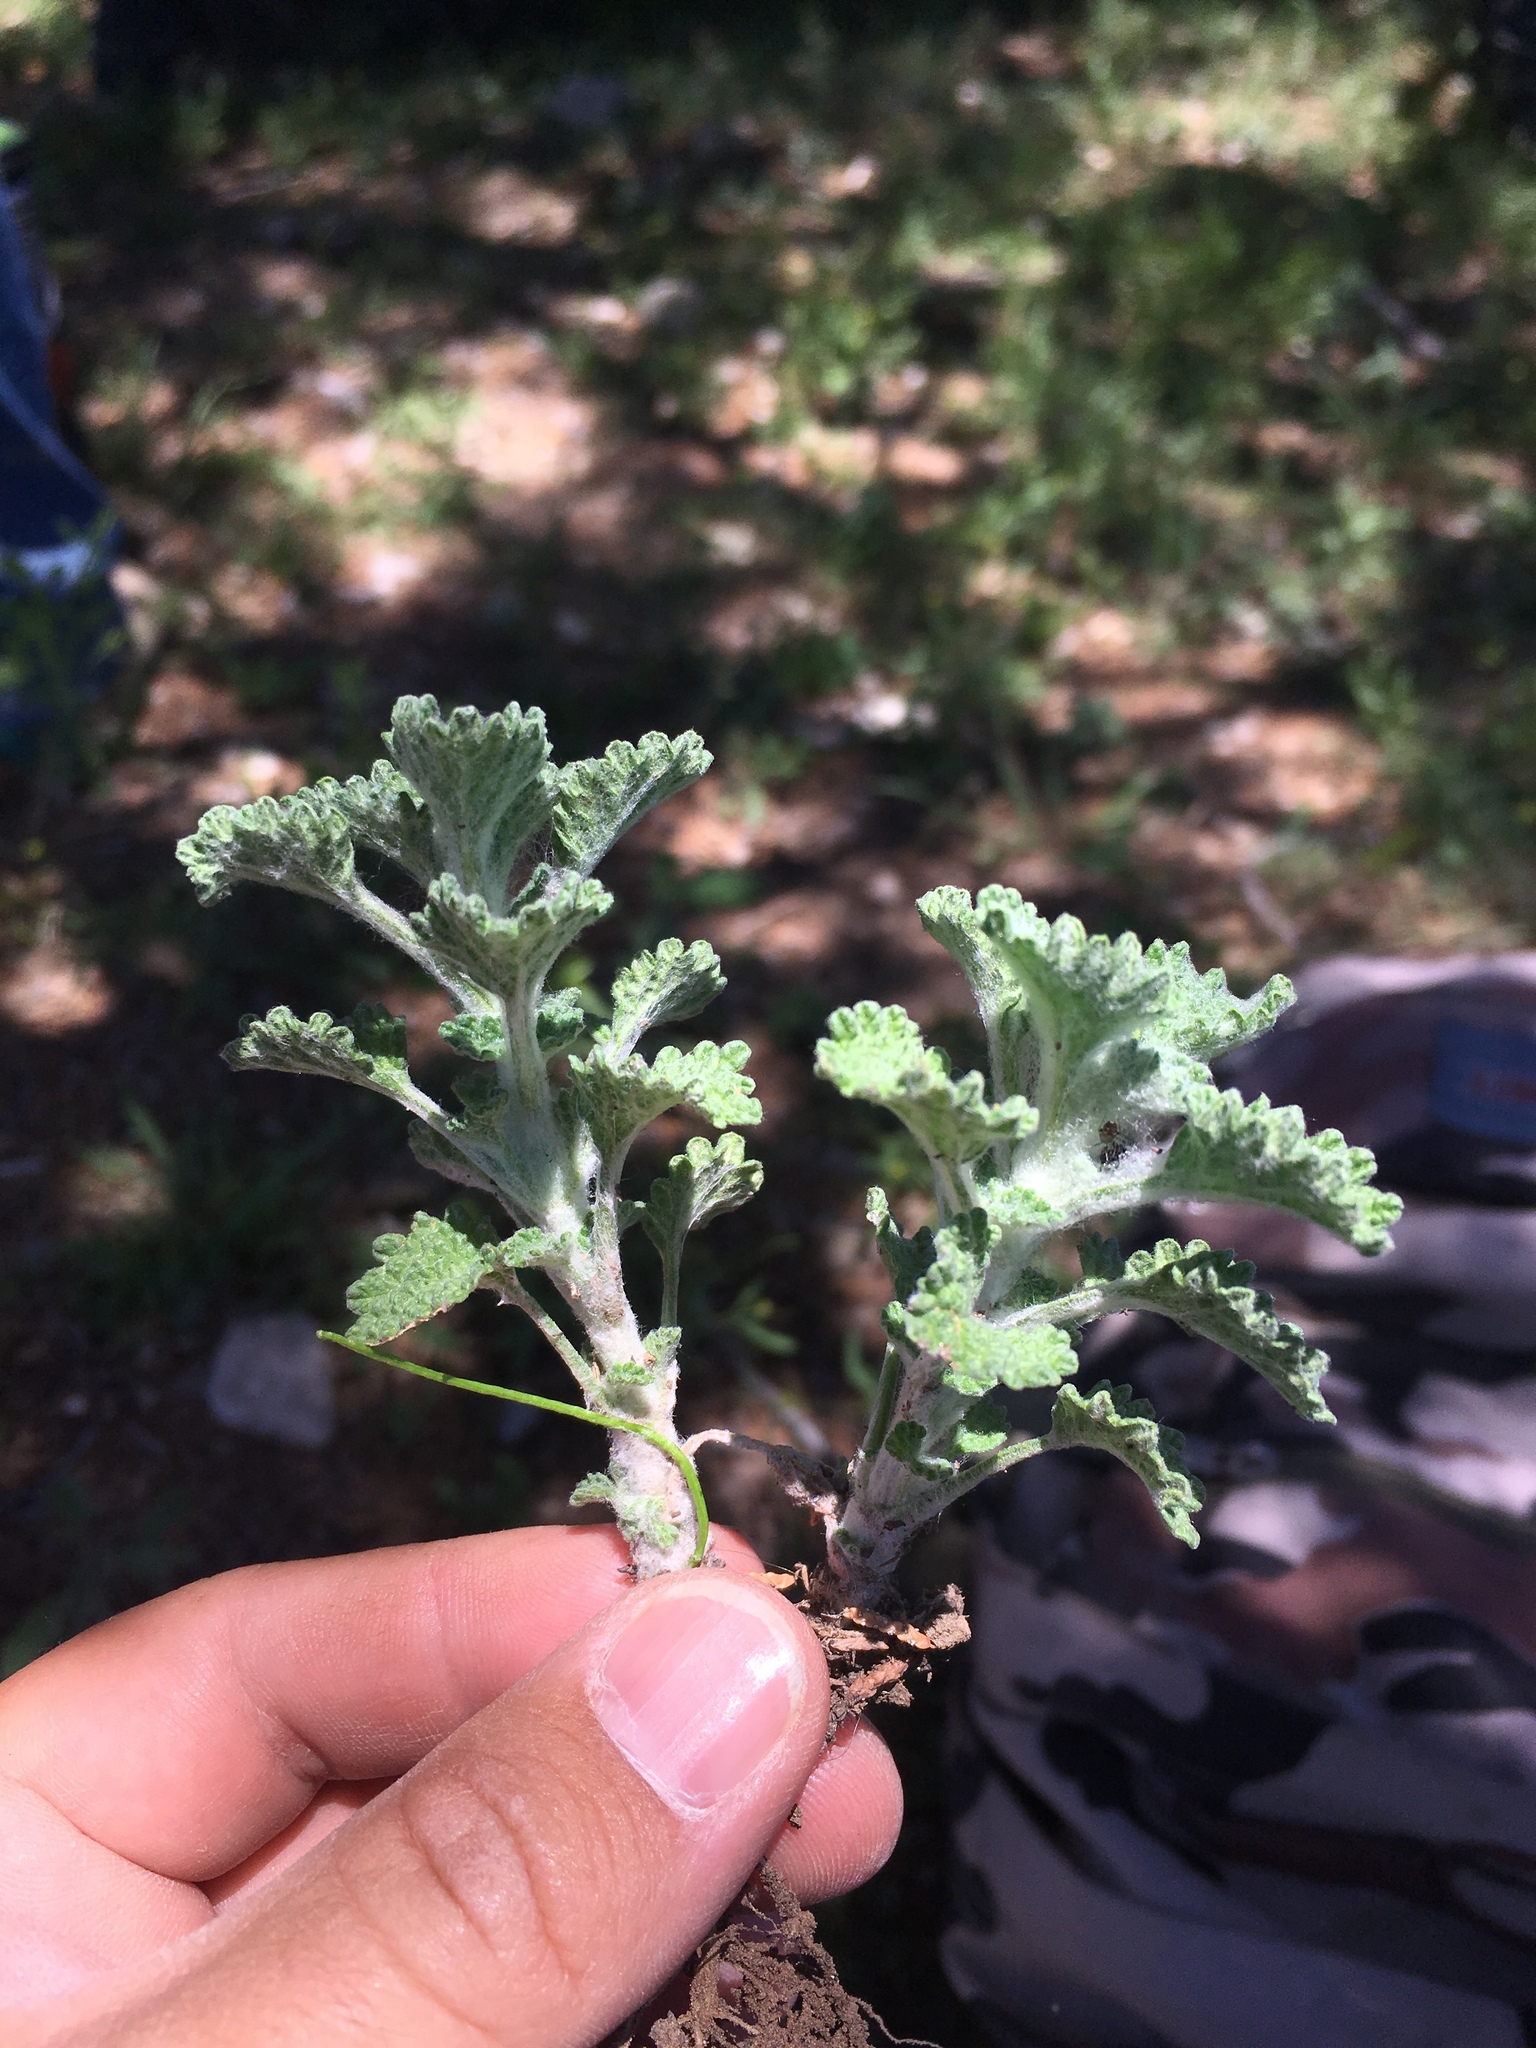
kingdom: Plantae
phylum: Tracheophyta
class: Magnoliopsida
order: Lamiales
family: Lamiaceae
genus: Marrubium
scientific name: Marrubium vulgare
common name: Horehound
